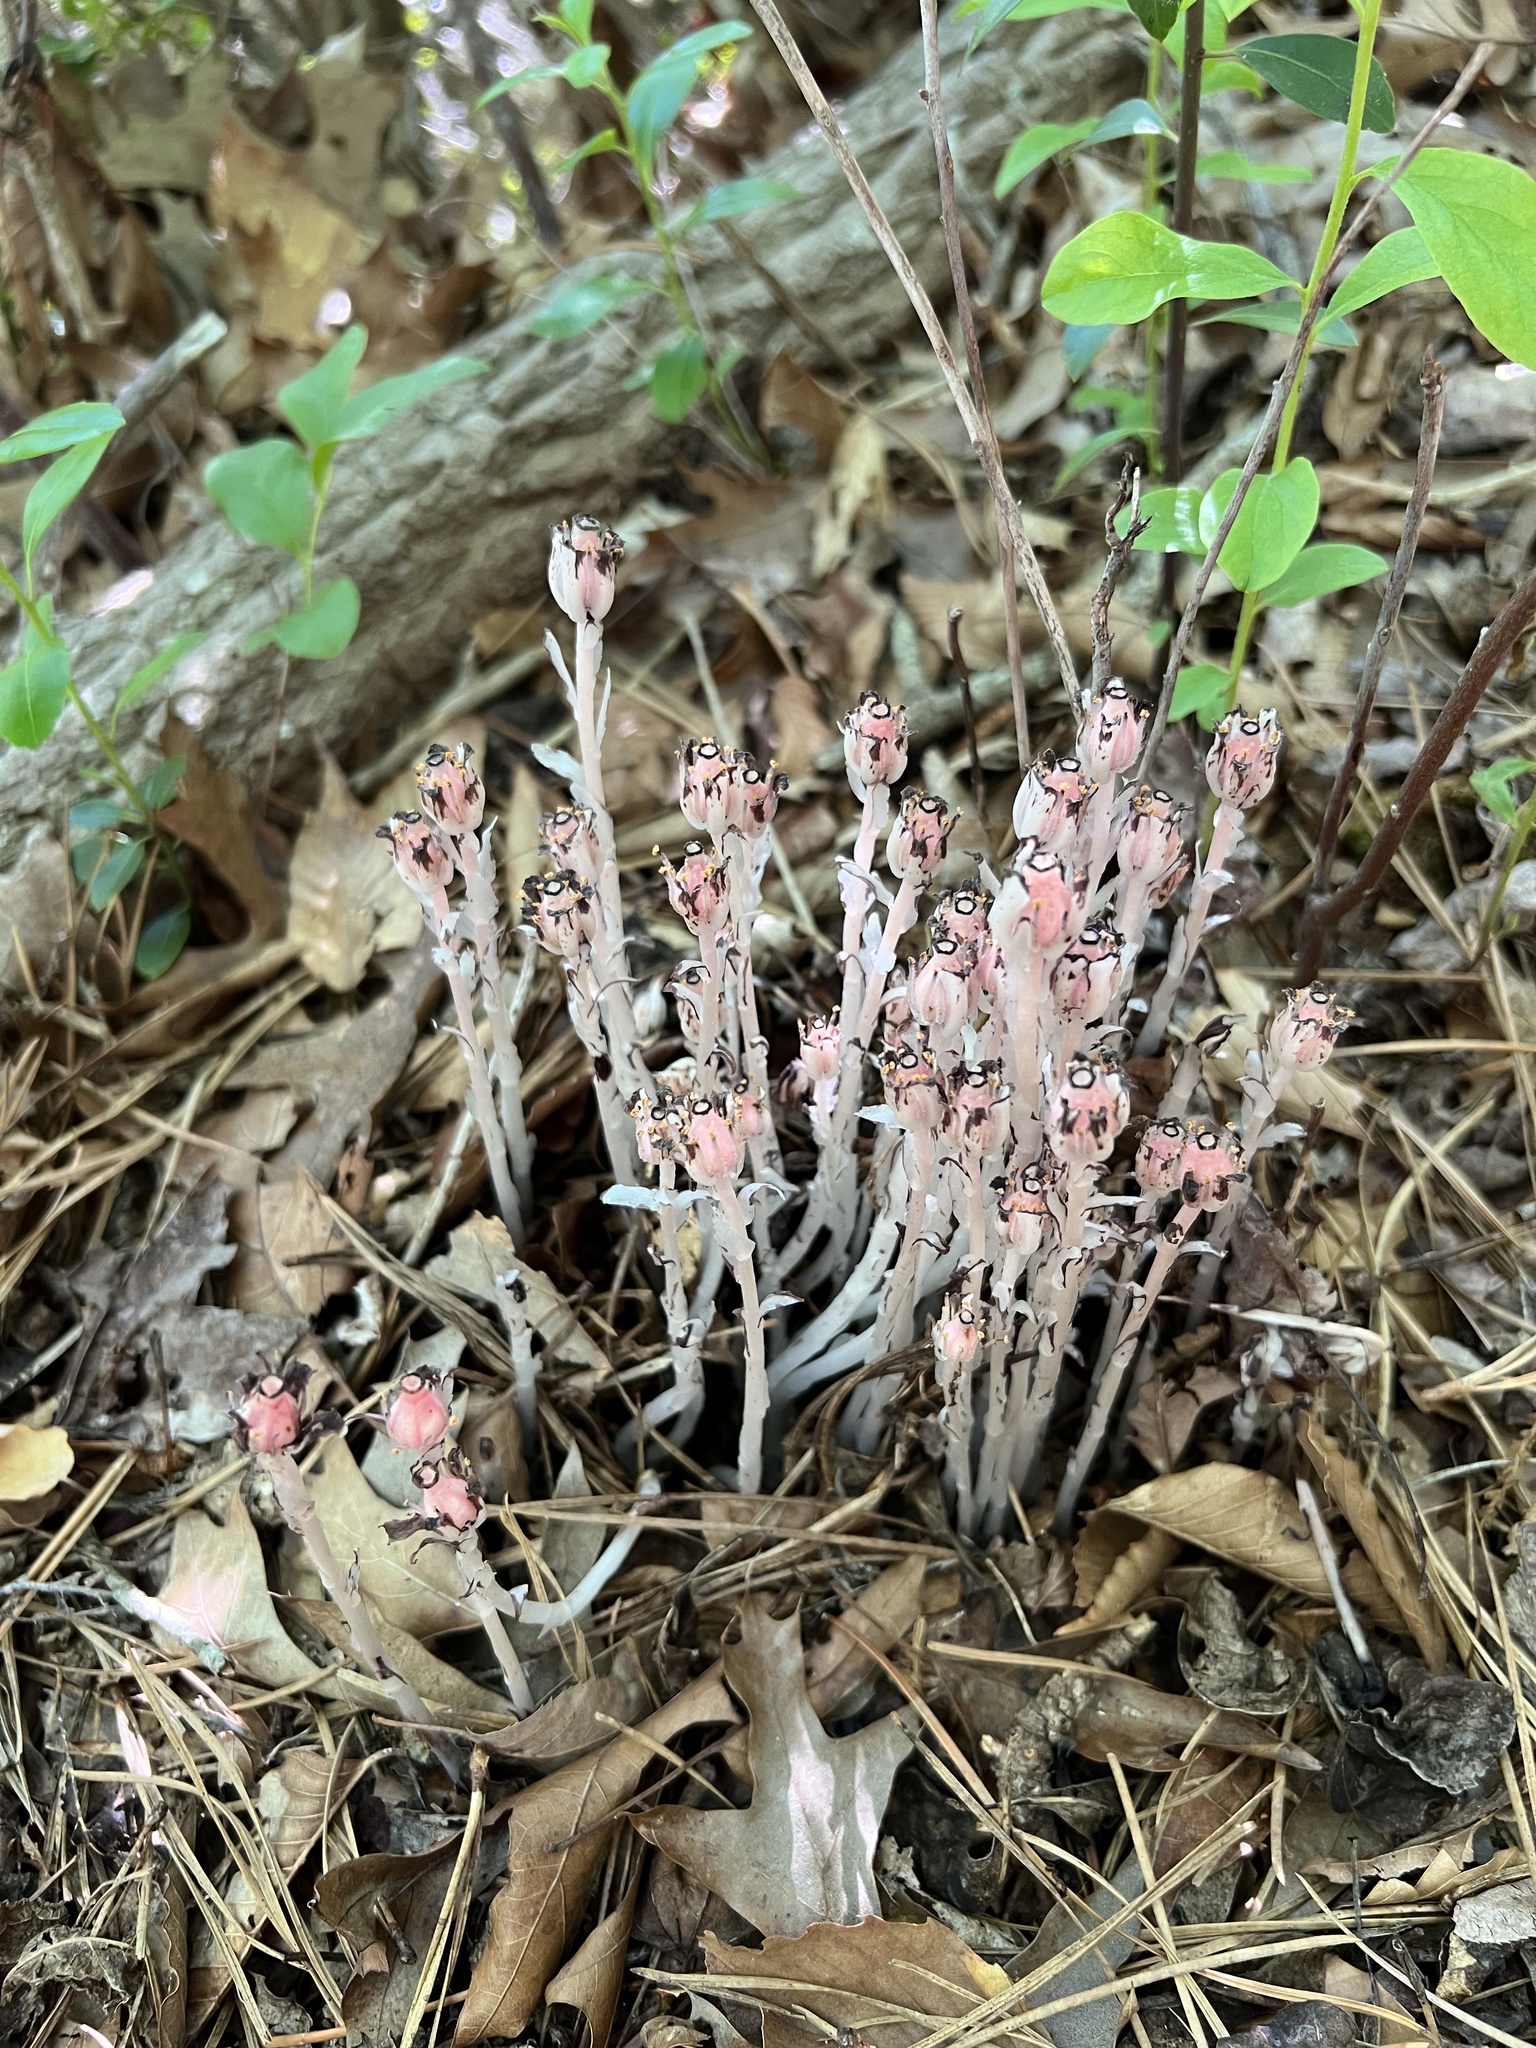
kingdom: Plantae
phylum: Tracheophyta
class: Magnoliopsida
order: Ericales
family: Ericaceae
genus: Monotropa
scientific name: Monotropa uniflora
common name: Convulsion root
